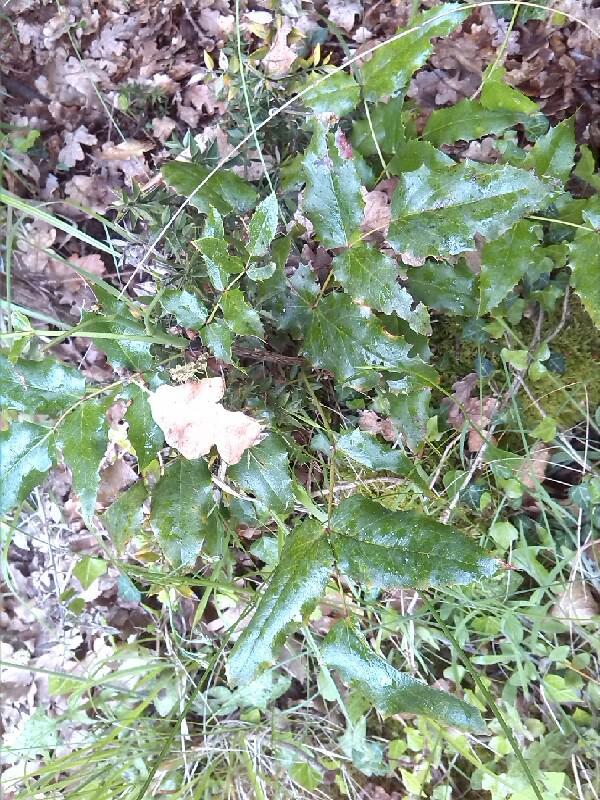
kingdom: Plantae
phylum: Tracheophyta
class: Magnoliopsida
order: Ranunculales
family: Berberidaceae
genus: Mahonia
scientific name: Mahonia aquifolium
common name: Oregon-grape
